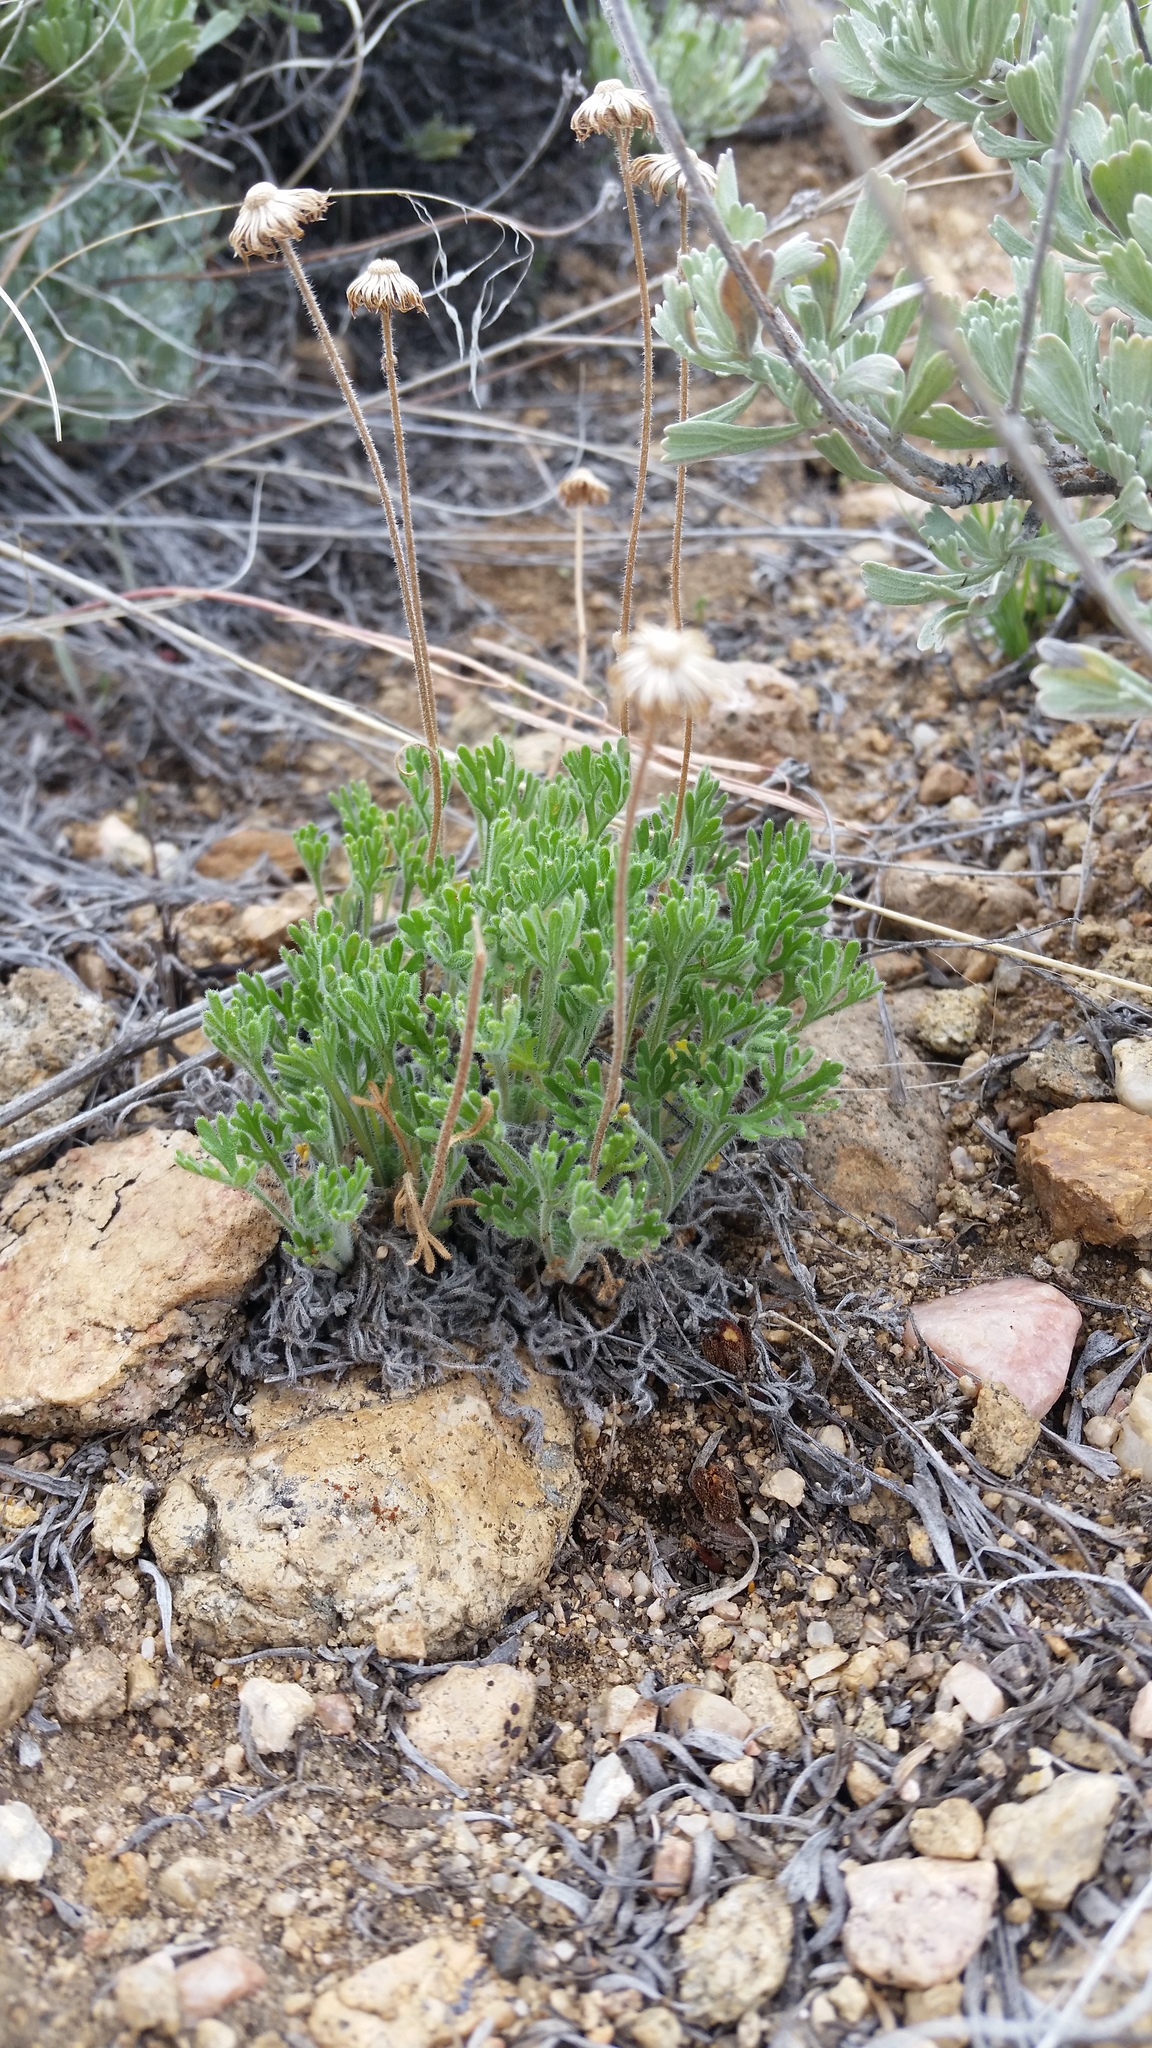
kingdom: Plantae
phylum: Tracheophyta
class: Magnoliopsida
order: Asterales
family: Asteraceae
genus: Erigeron
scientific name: Erigeron compositus
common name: Dwarf mountain fleabane
